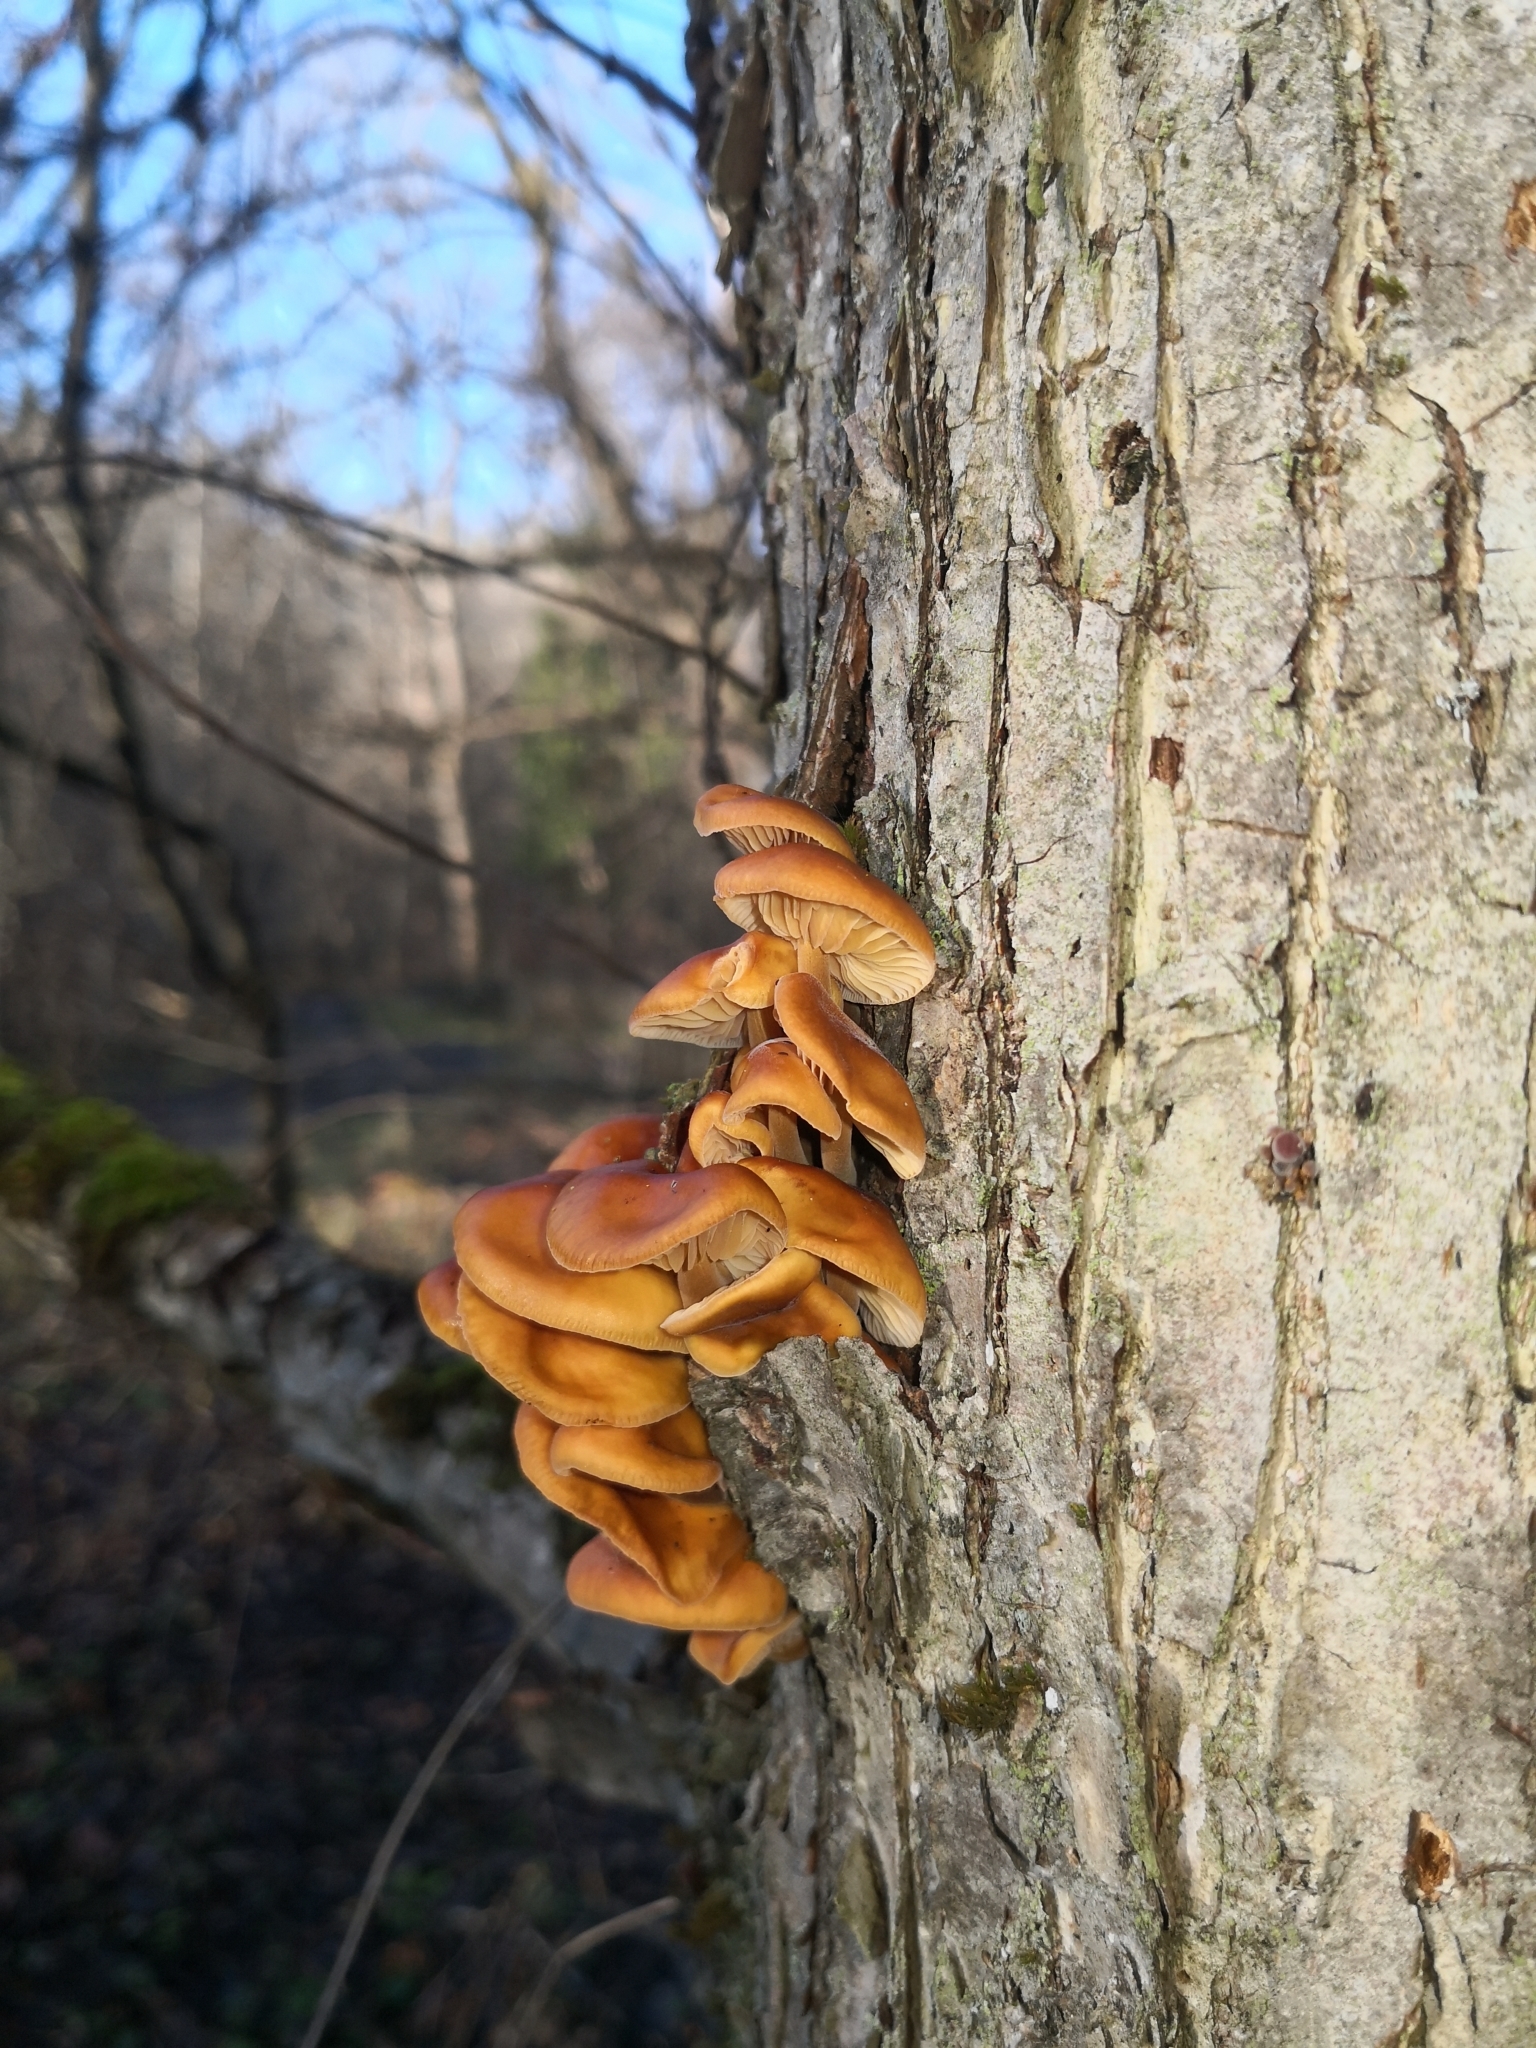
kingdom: Fungi
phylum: Basidiomycota
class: Agaricomycetes
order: Agaricales
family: Physalacriaceae
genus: Flammulina
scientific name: Flammulina
